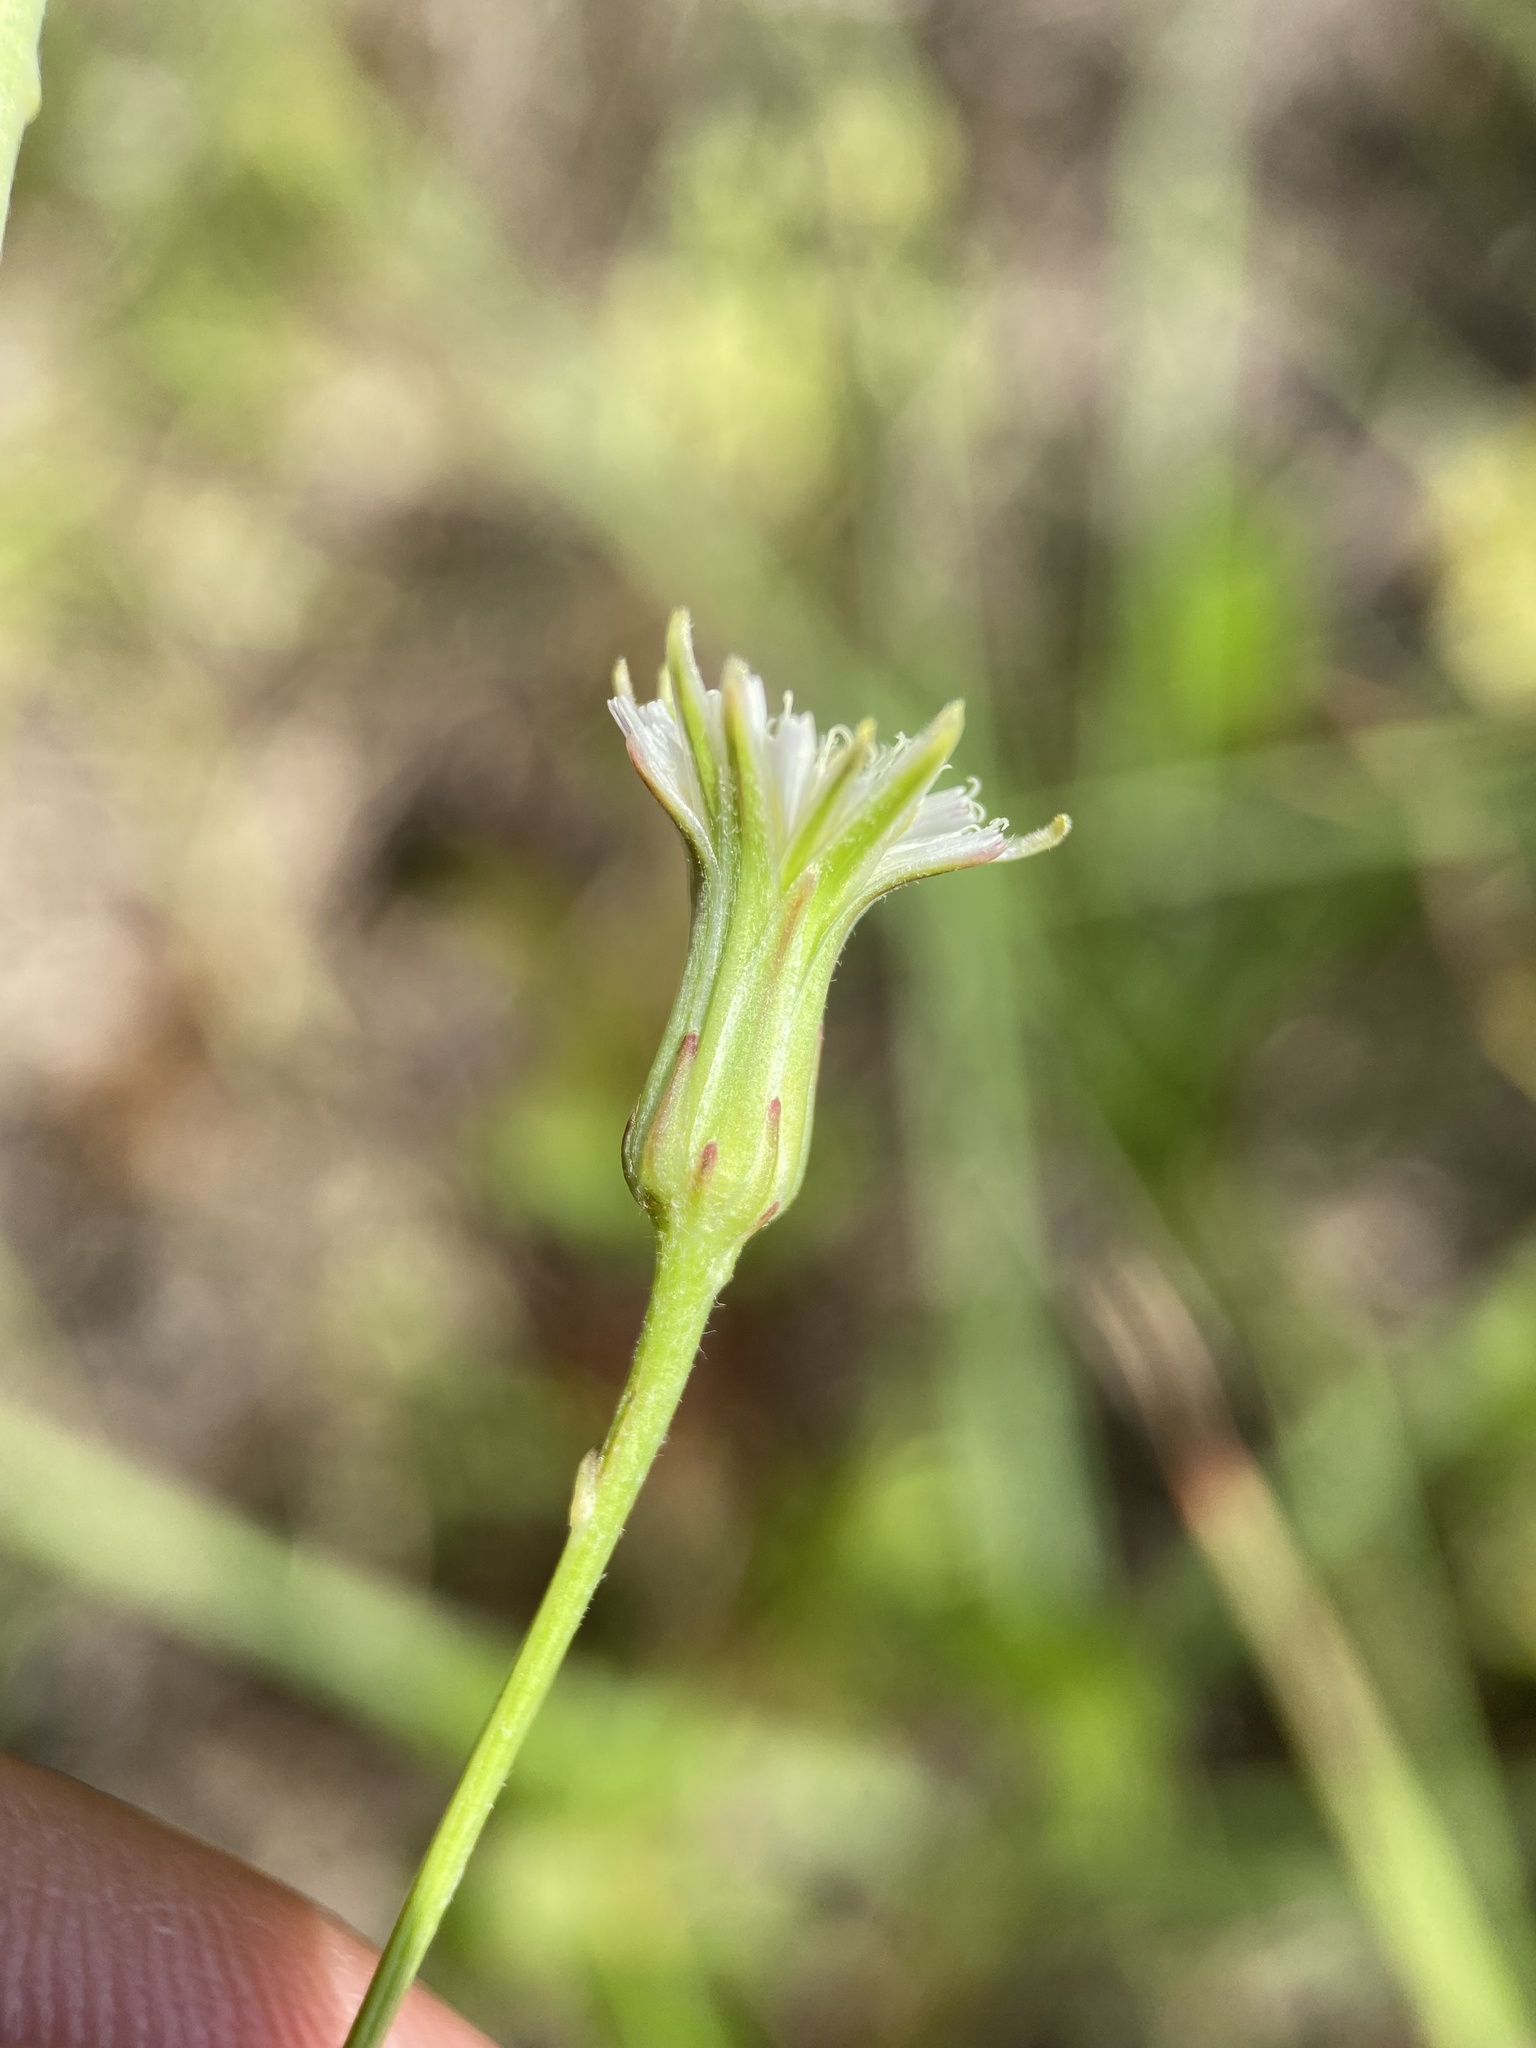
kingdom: Plantae
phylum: Tracheophyta
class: Magnoliopsida
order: Asterales
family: Asteraceae
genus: Hypochaeris
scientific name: Hypochaeris albiflora
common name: White flatweed
